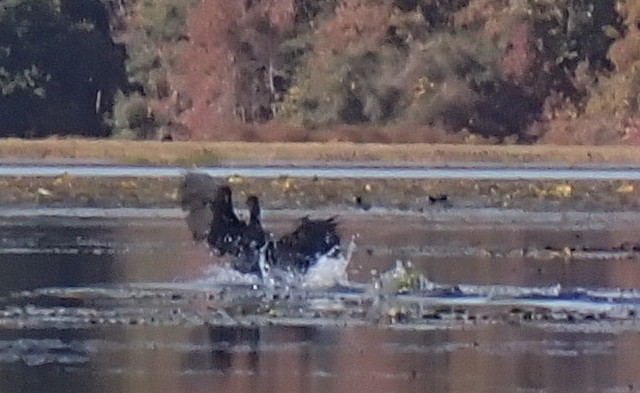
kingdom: Animalia
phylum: Chordata
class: Aves
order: Suliformes
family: Phalacrocoracidae
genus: Phalacrocorax
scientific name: Phalacrocorax auritus
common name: Double-crested cormorant
